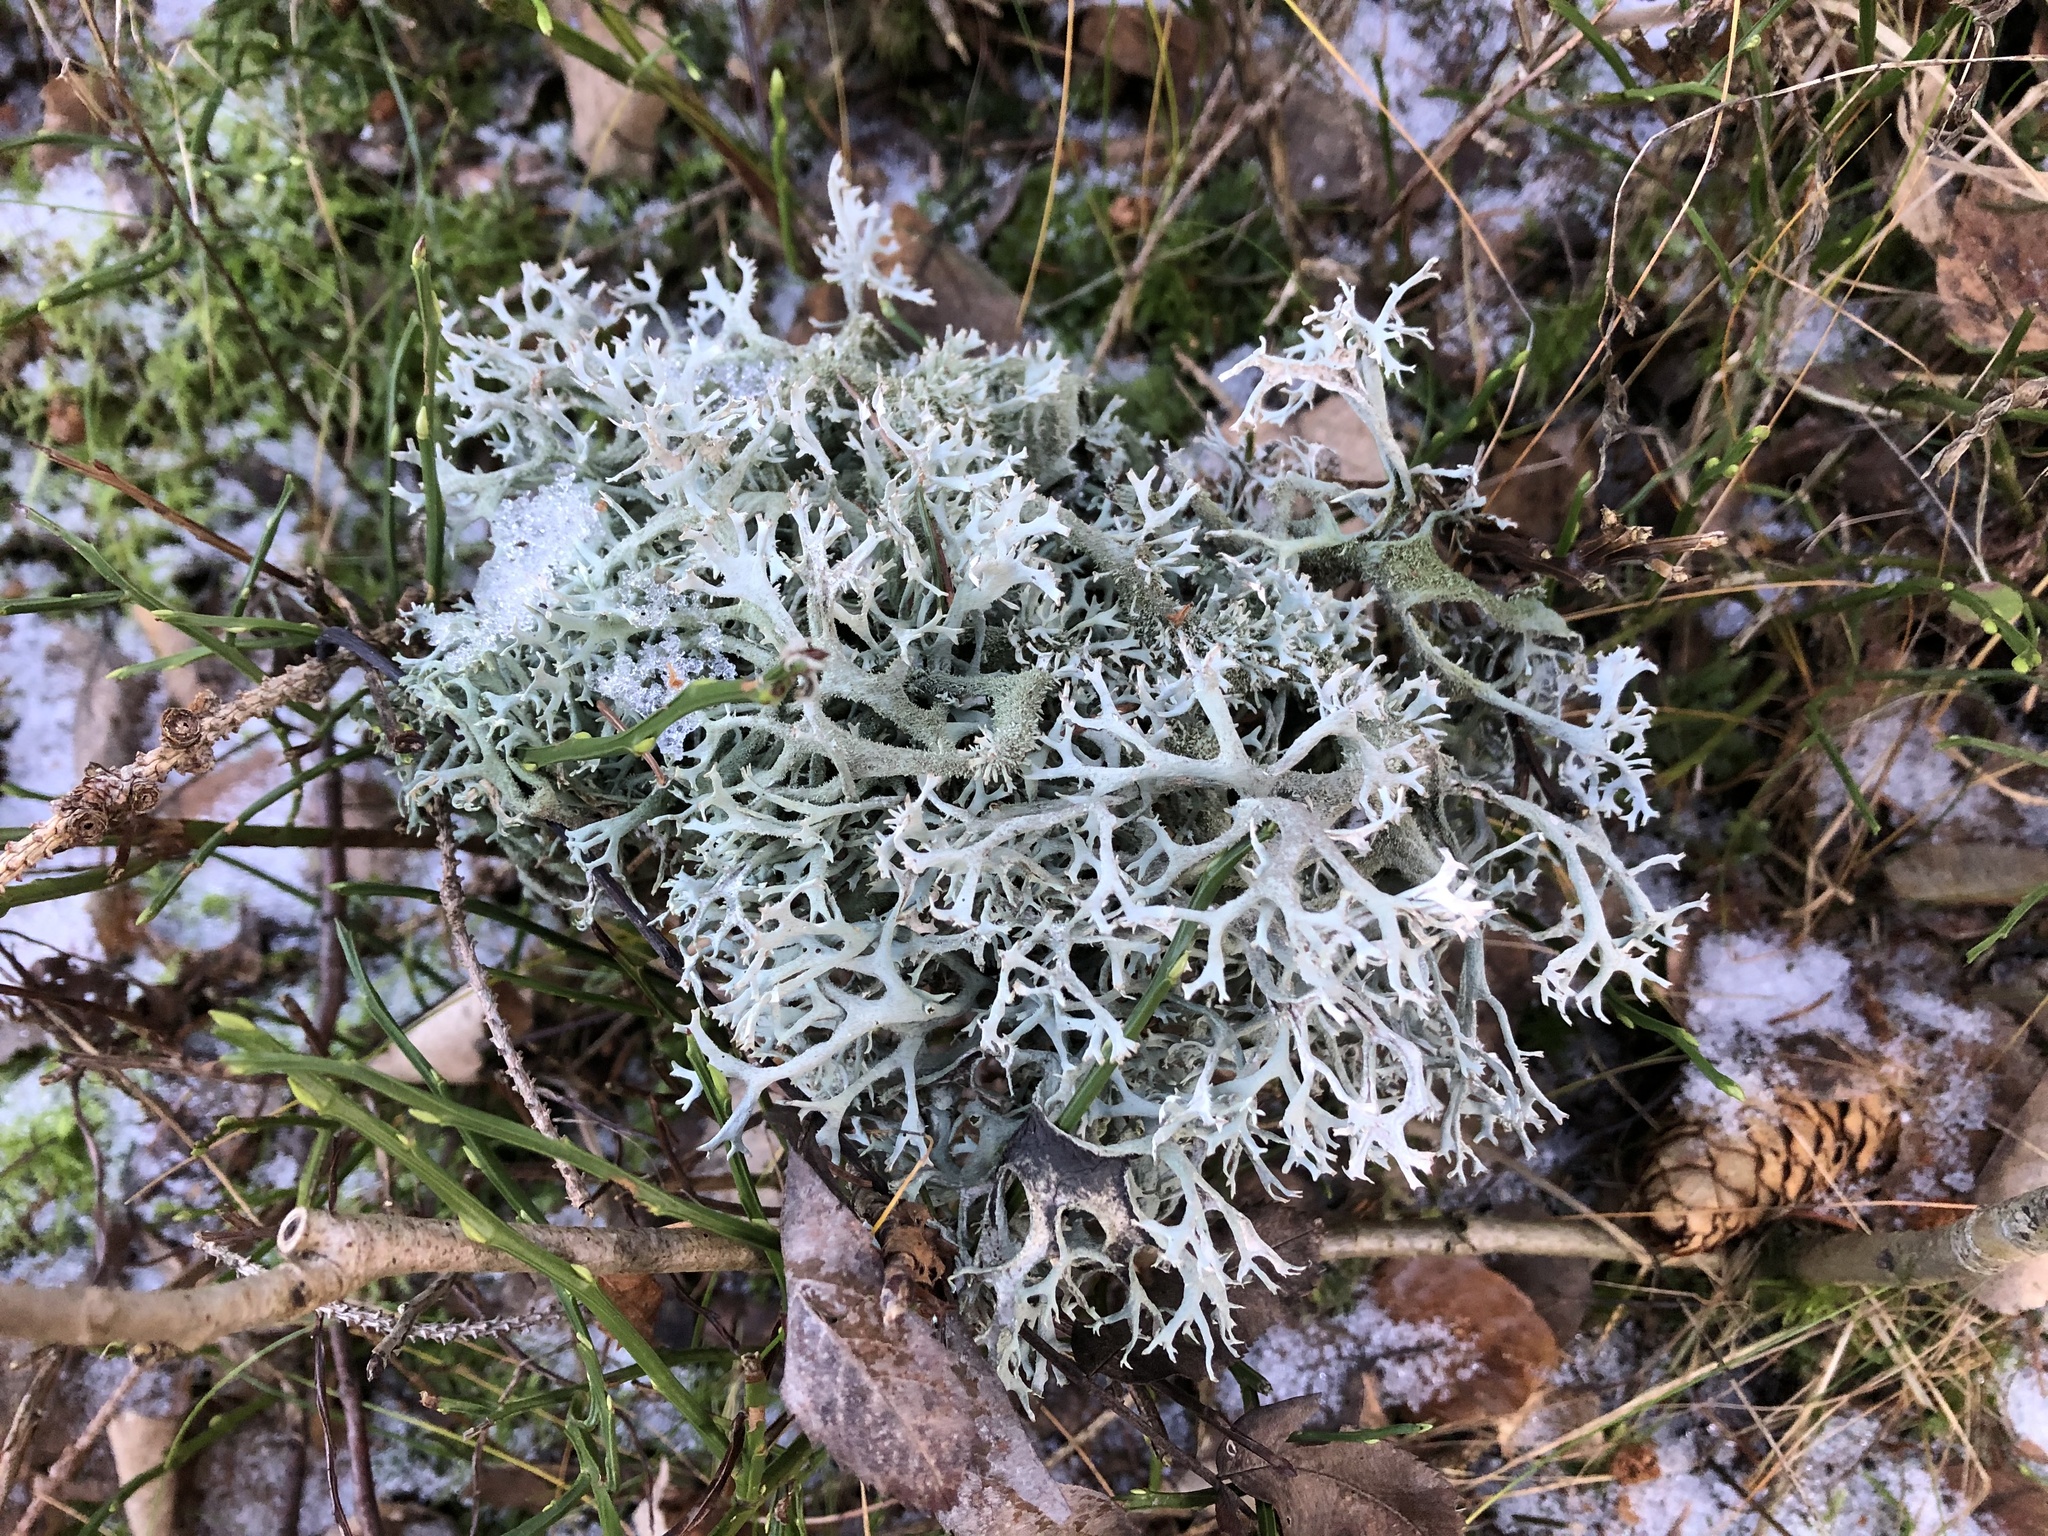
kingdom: Fungi
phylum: Ascomycota
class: Lecanoromycetes
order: Lecanorales
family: Parmeliaceae
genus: Pseudevernia
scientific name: Pseudevernia furfuracea
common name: Tree moss
